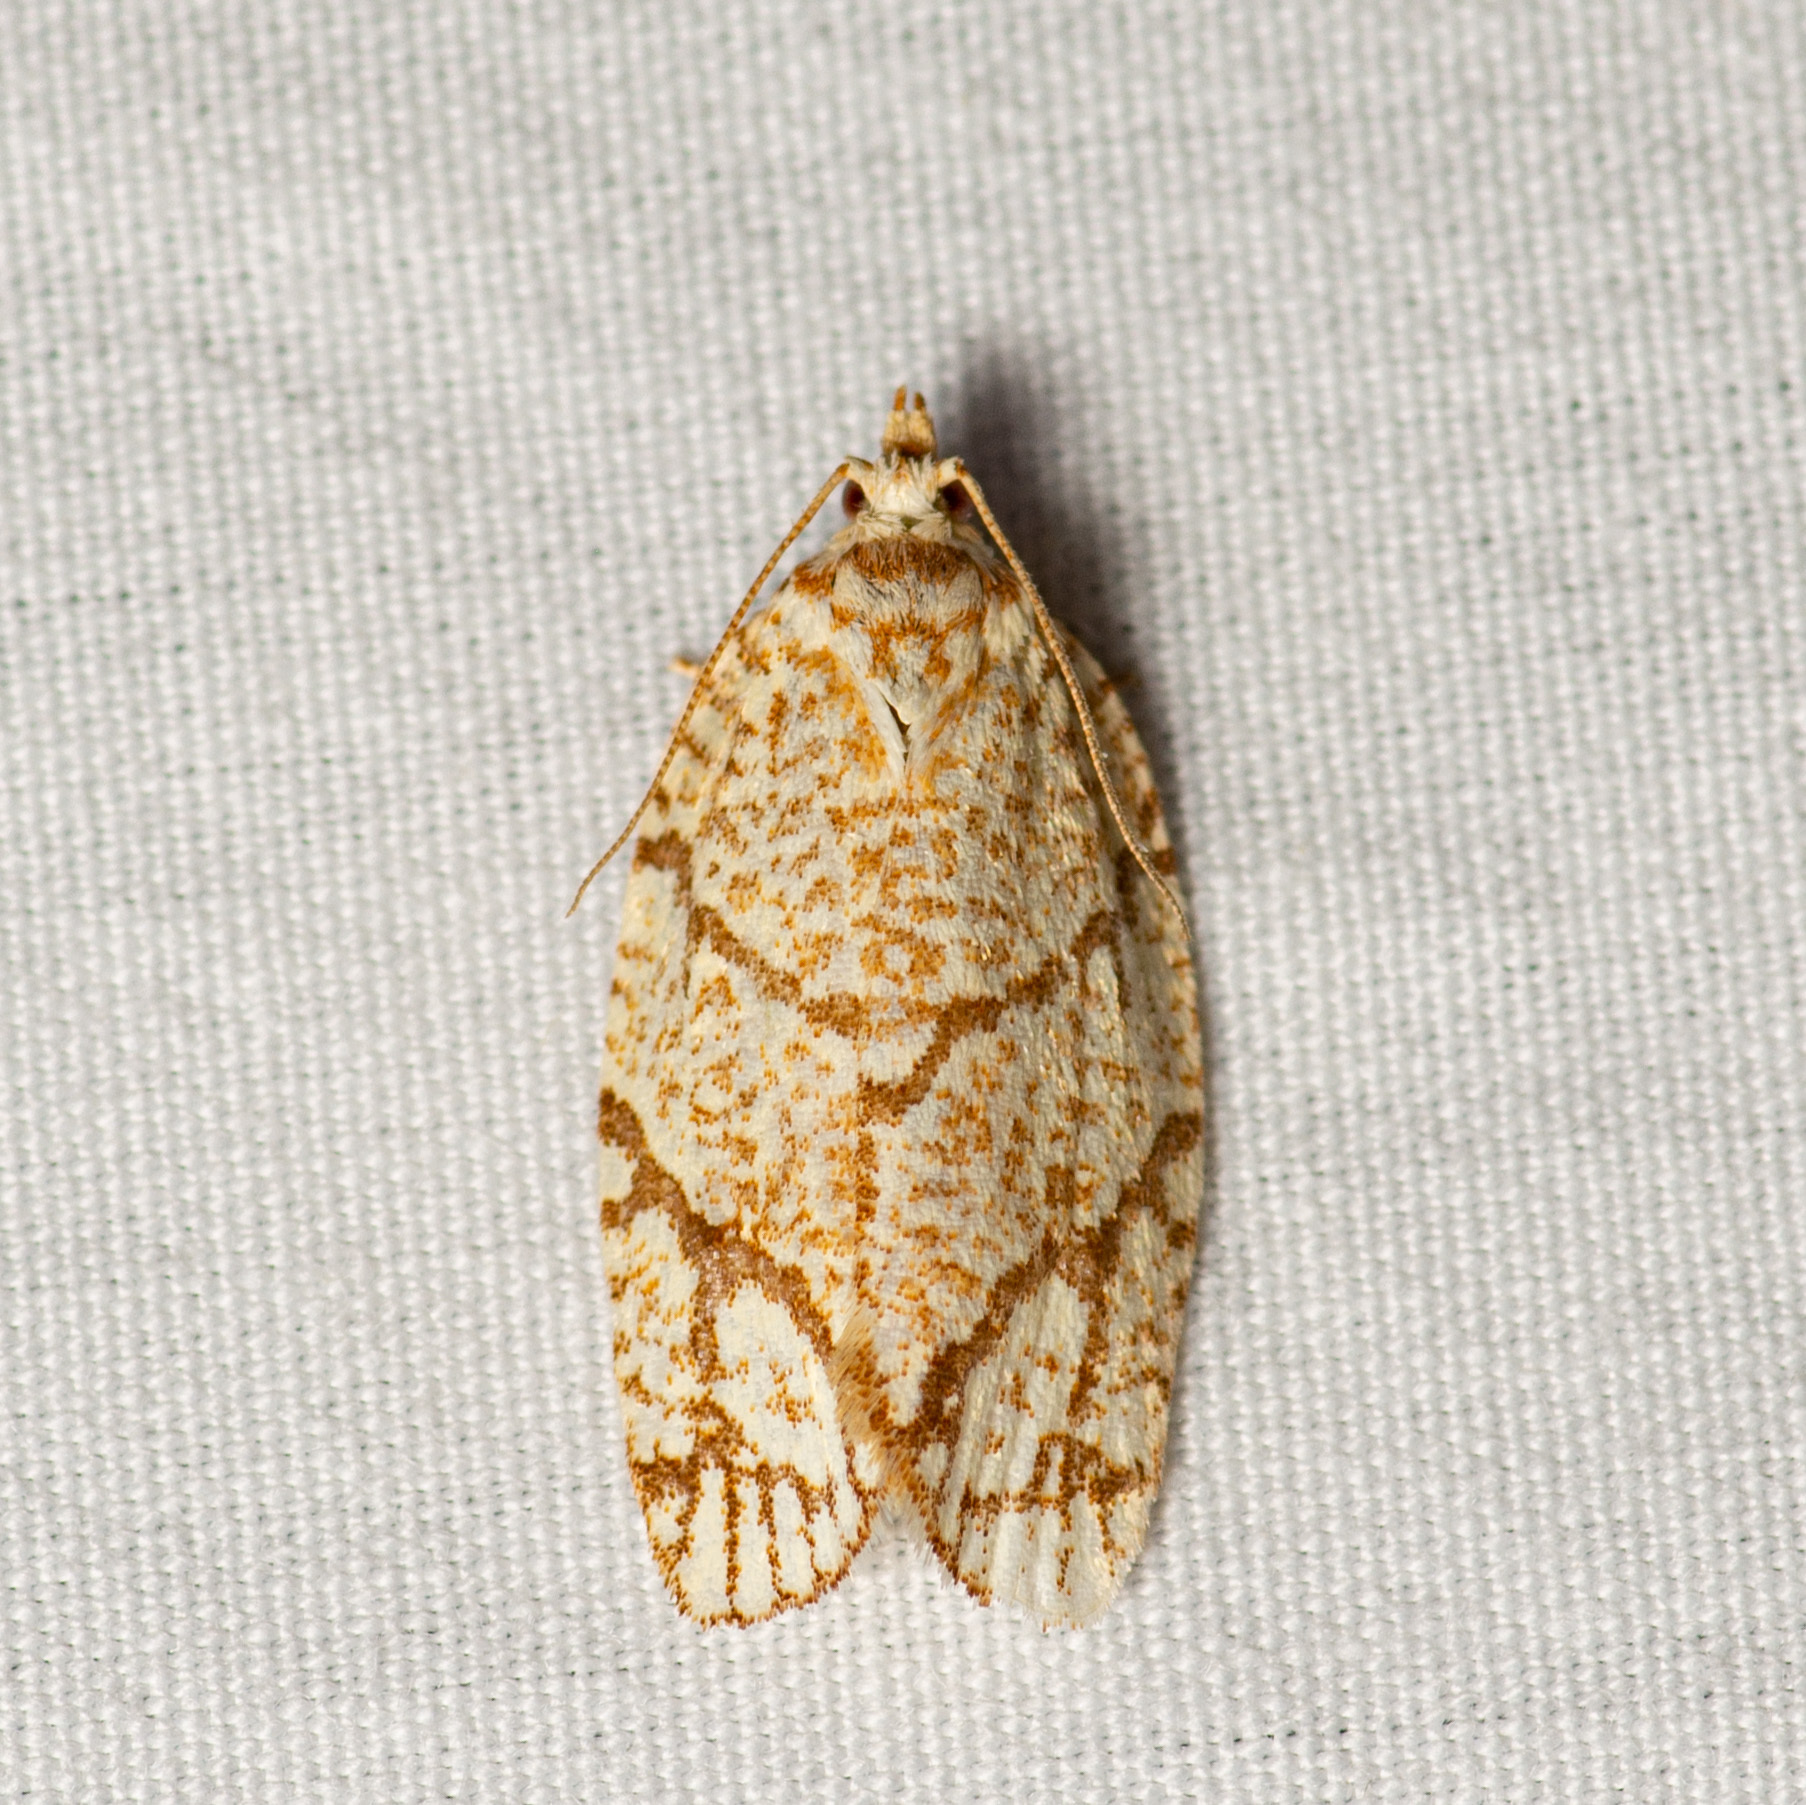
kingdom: Animalia
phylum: Arthropoda
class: Insecta
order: Lepidoptera
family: Tortricidae
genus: Argyrotaenia
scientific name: Argyrotaenia quercifoliana
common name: Yellow-winged oak leafroller moth
